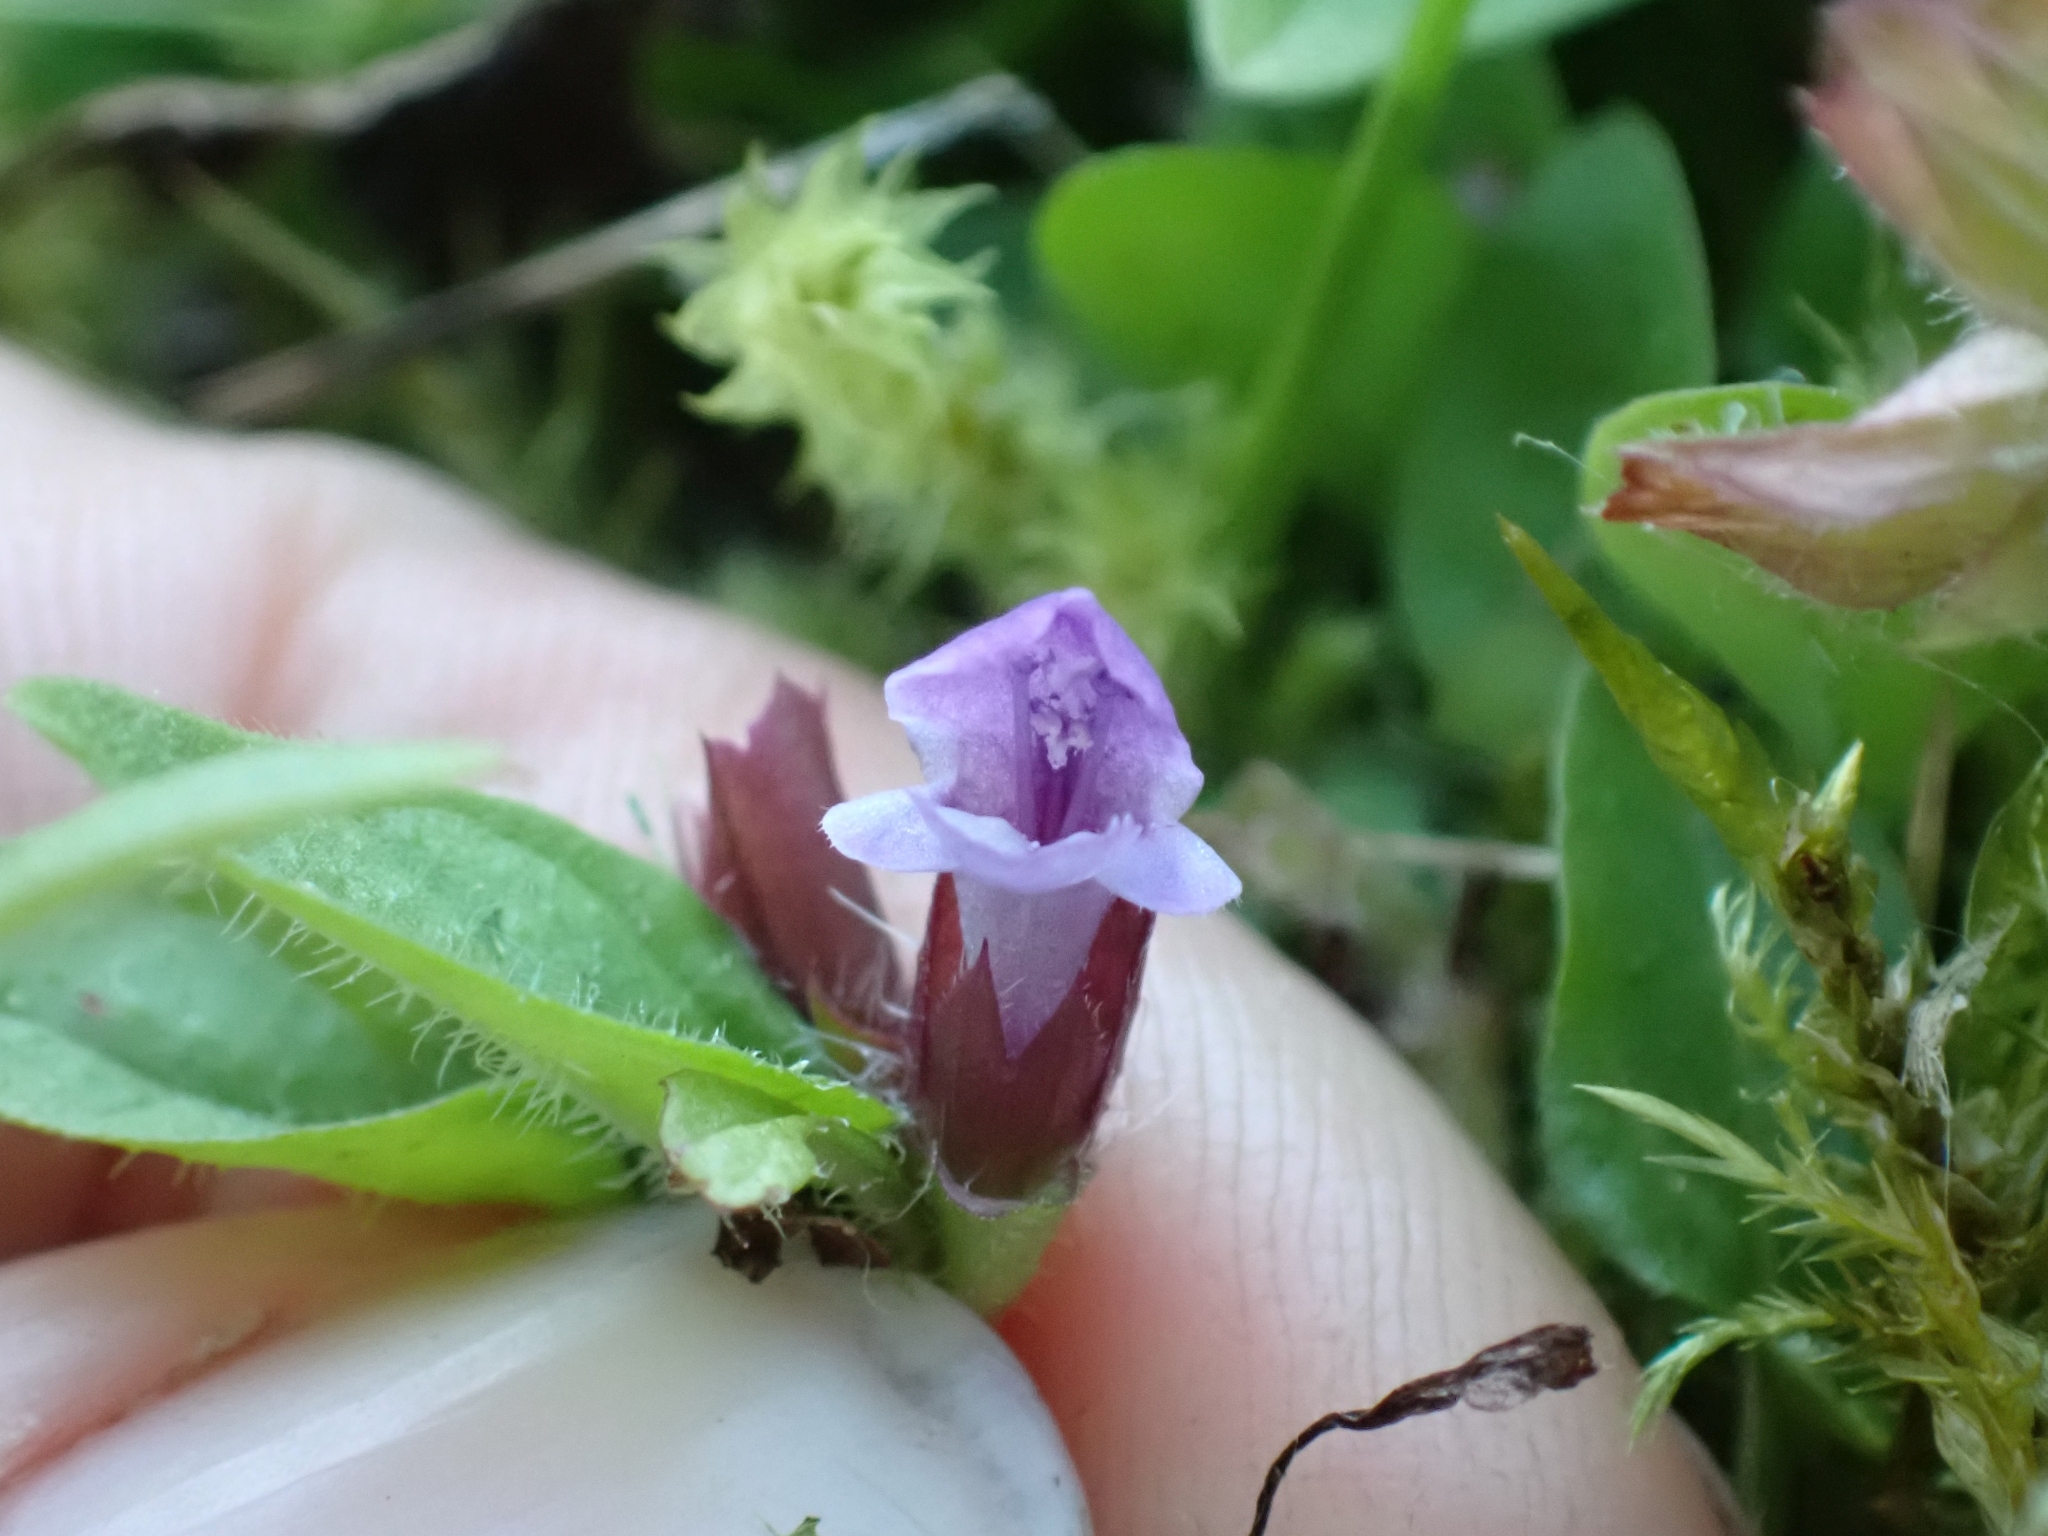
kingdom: Plantae
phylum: Tracheophyta
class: Magnoliopsida
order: Lamiales
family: Lamiaceae
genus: Prunella
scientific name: Prunella vulgaris
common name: Heal-all
